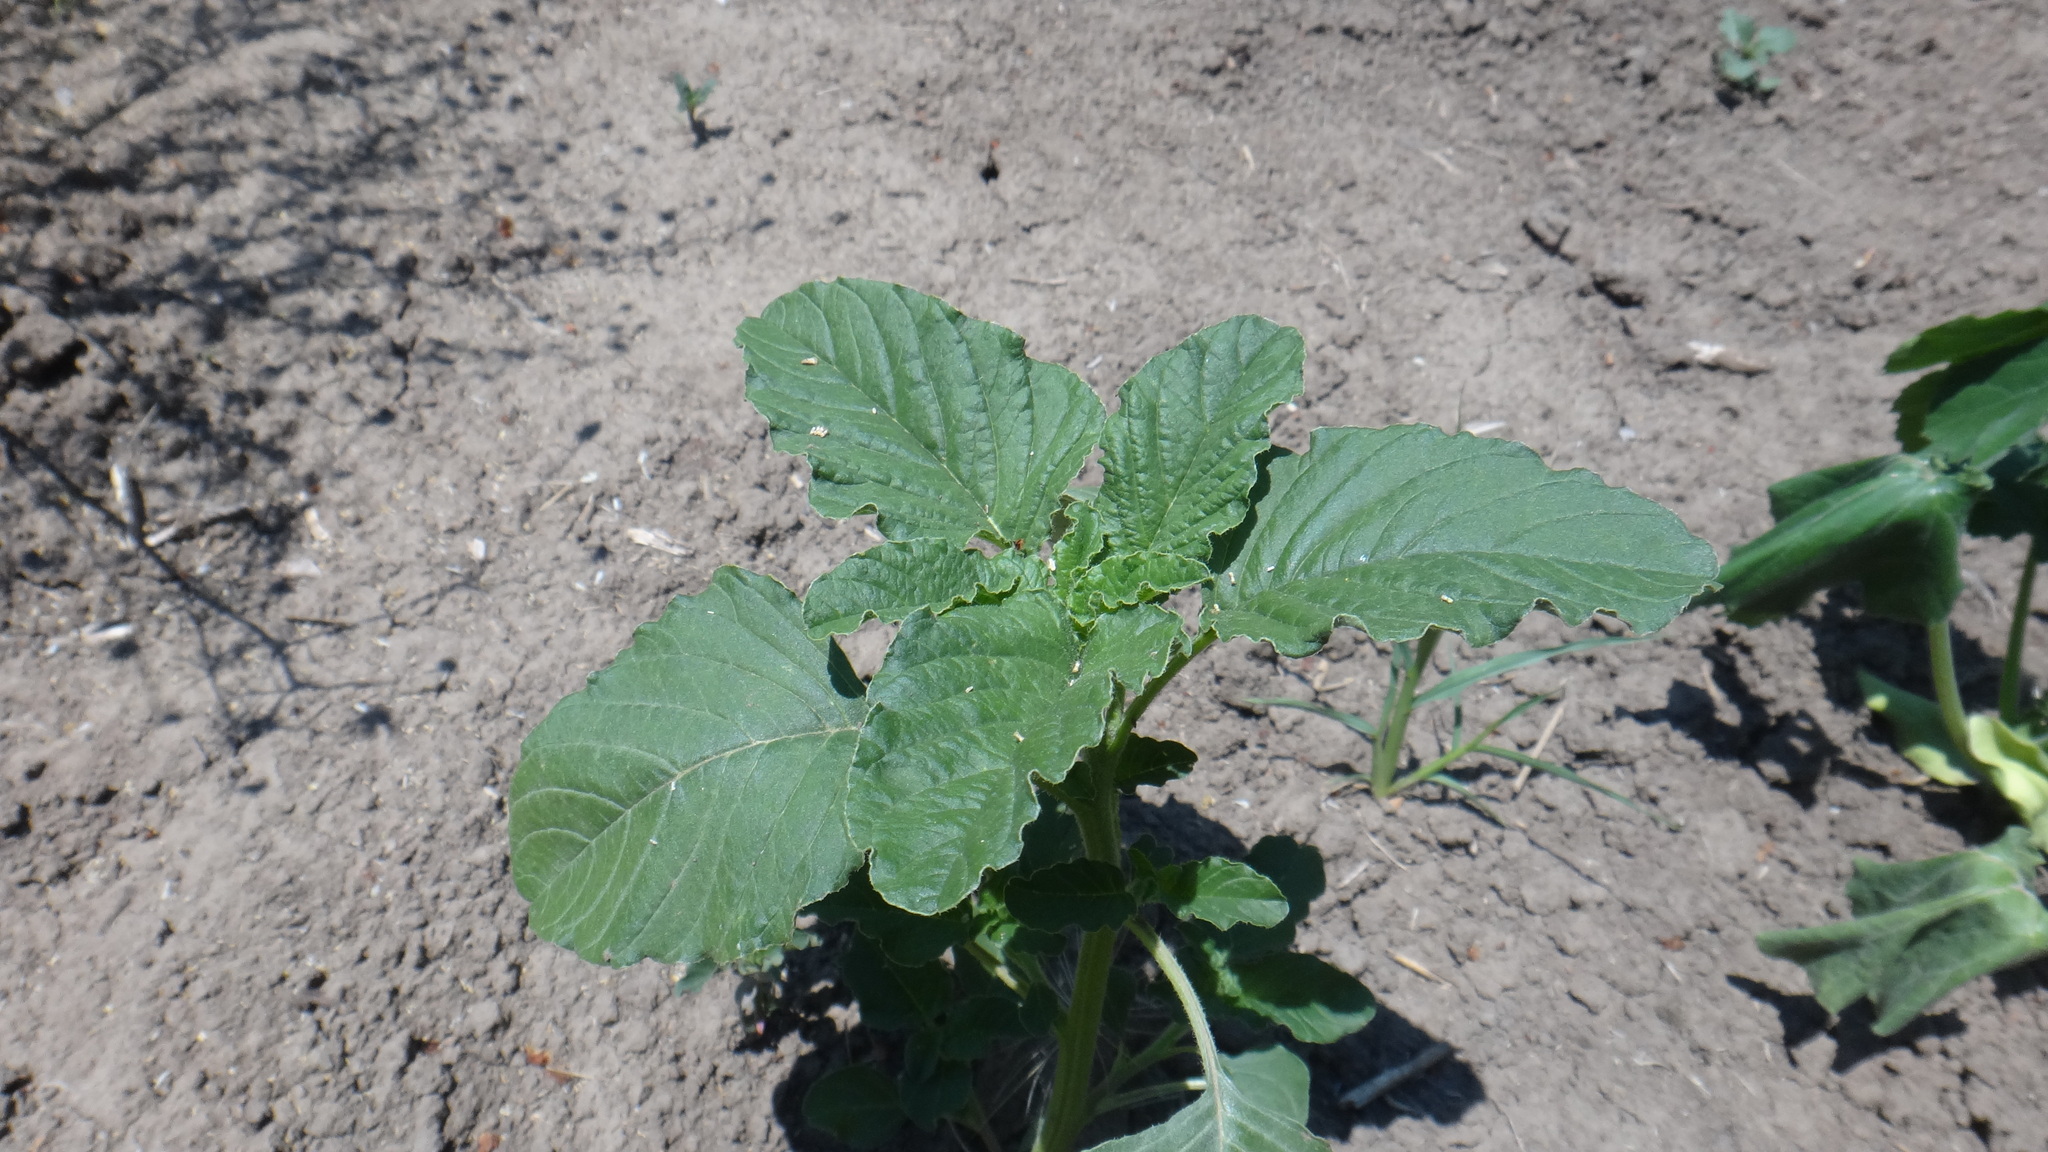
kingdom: Plantae
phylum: Tracheophyta
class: Magnoliopsida
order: Caryophyllales
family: Amaranthaceae
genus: Amaranthus
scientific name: Amaranthus retroflexus
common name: Redroot amaranth
